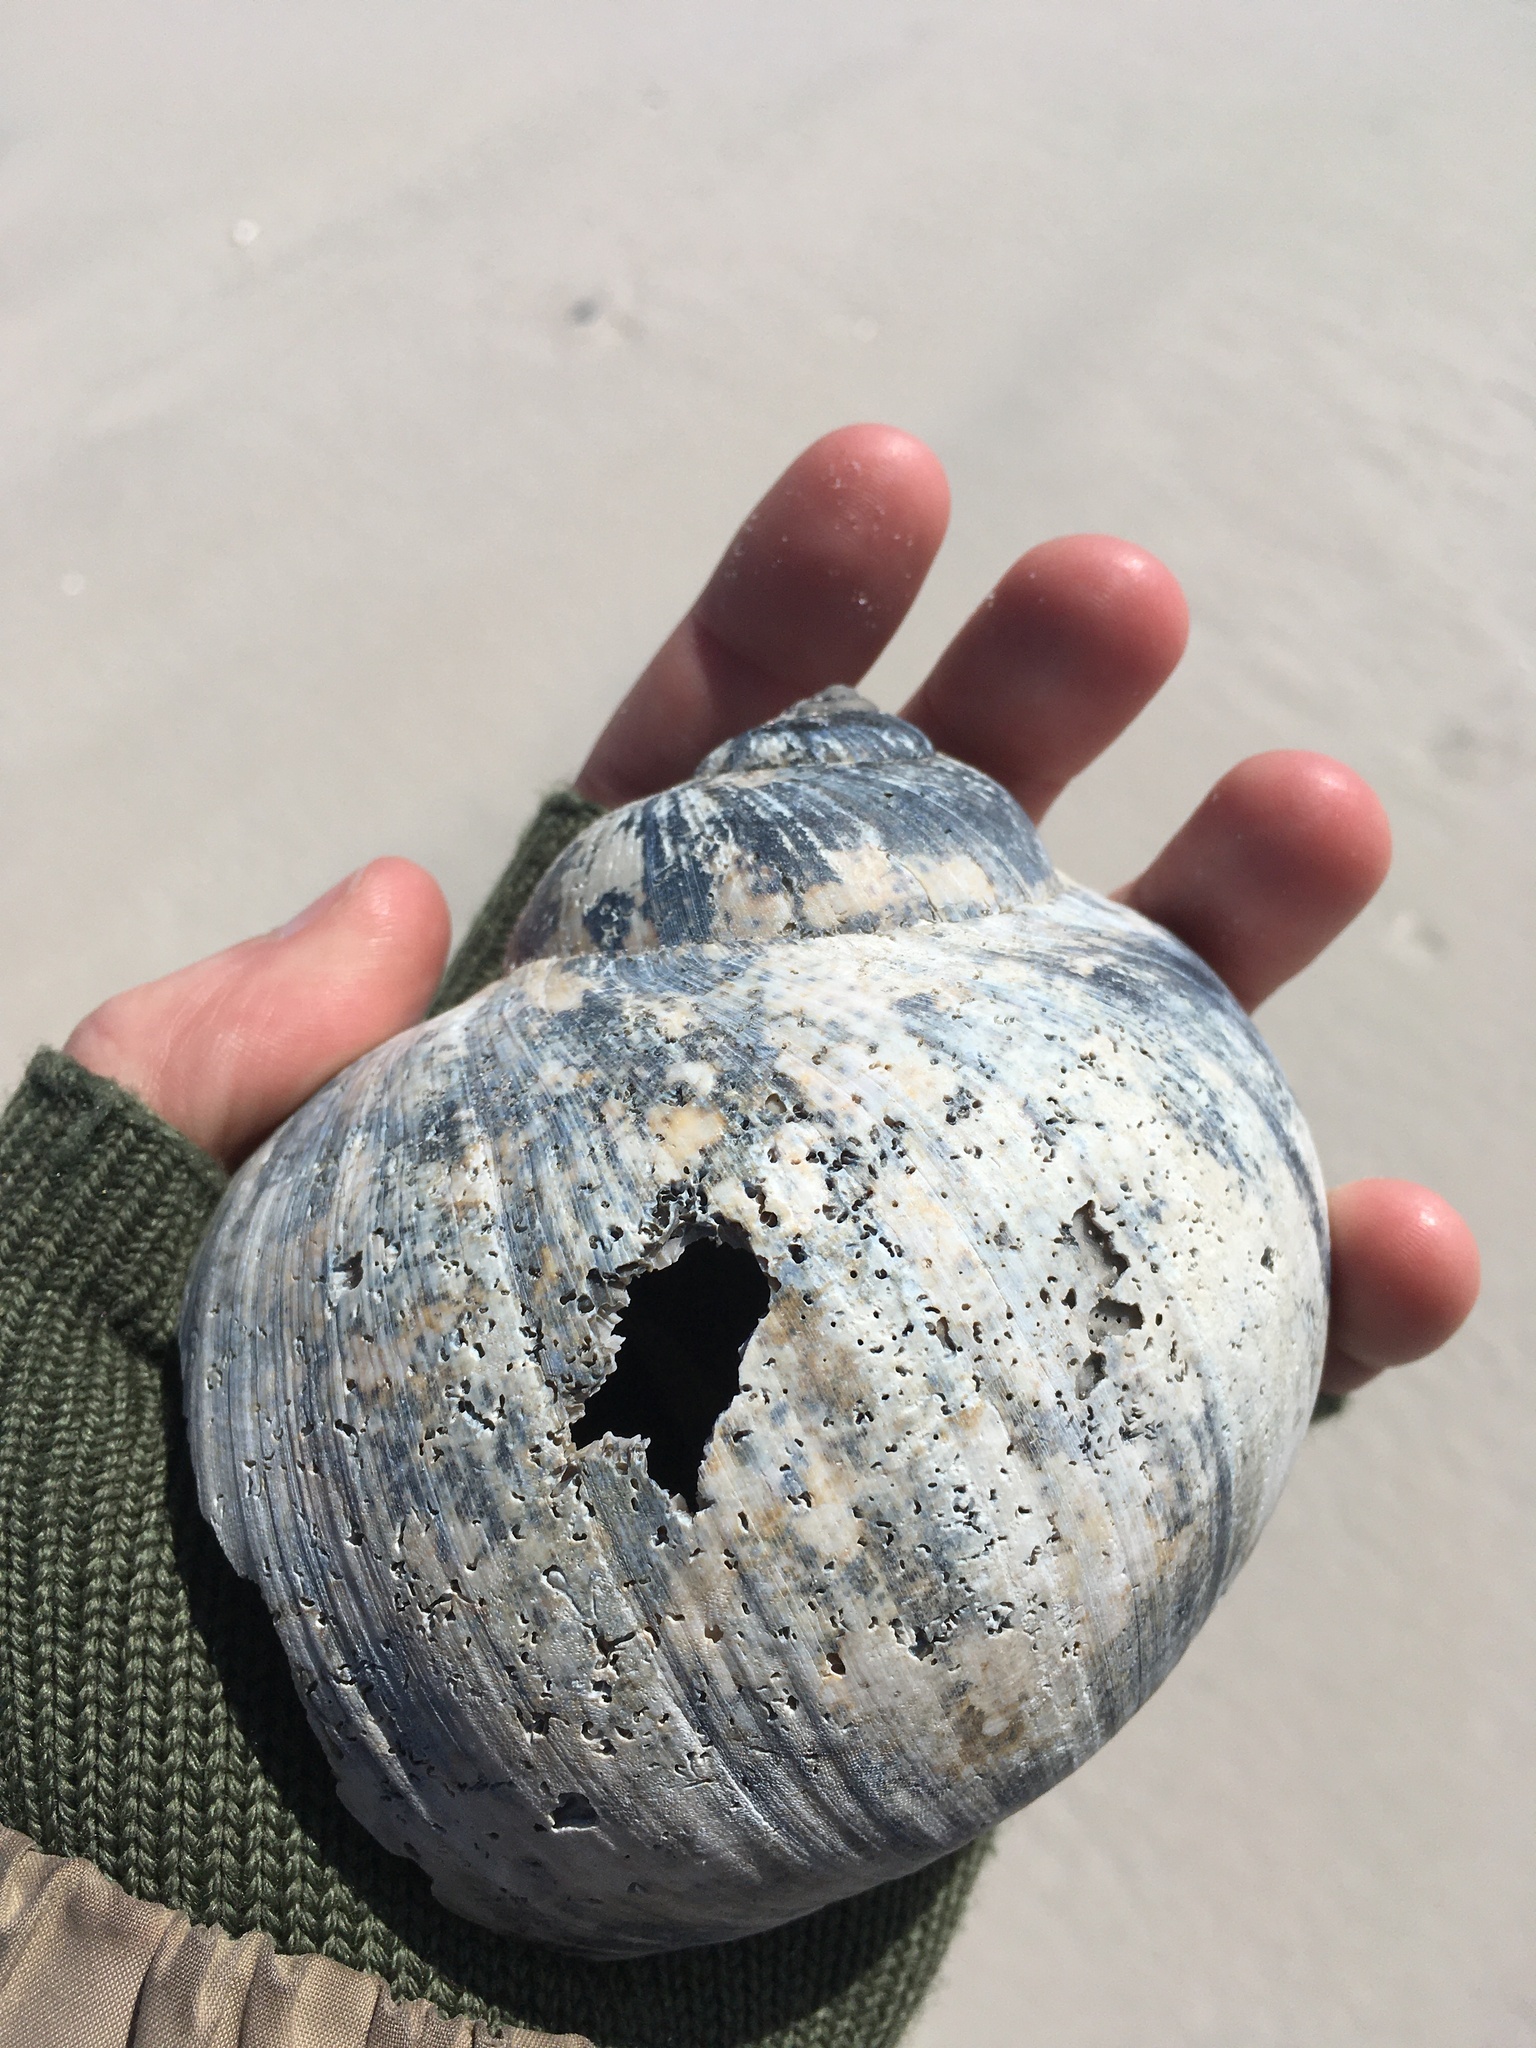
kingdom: Animalia
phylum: Mollusca
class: Gastropoda
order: Littorinimorpha
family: Naticidae
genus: Euspira
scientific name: Euspira heros
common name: Common northern moonsnail
